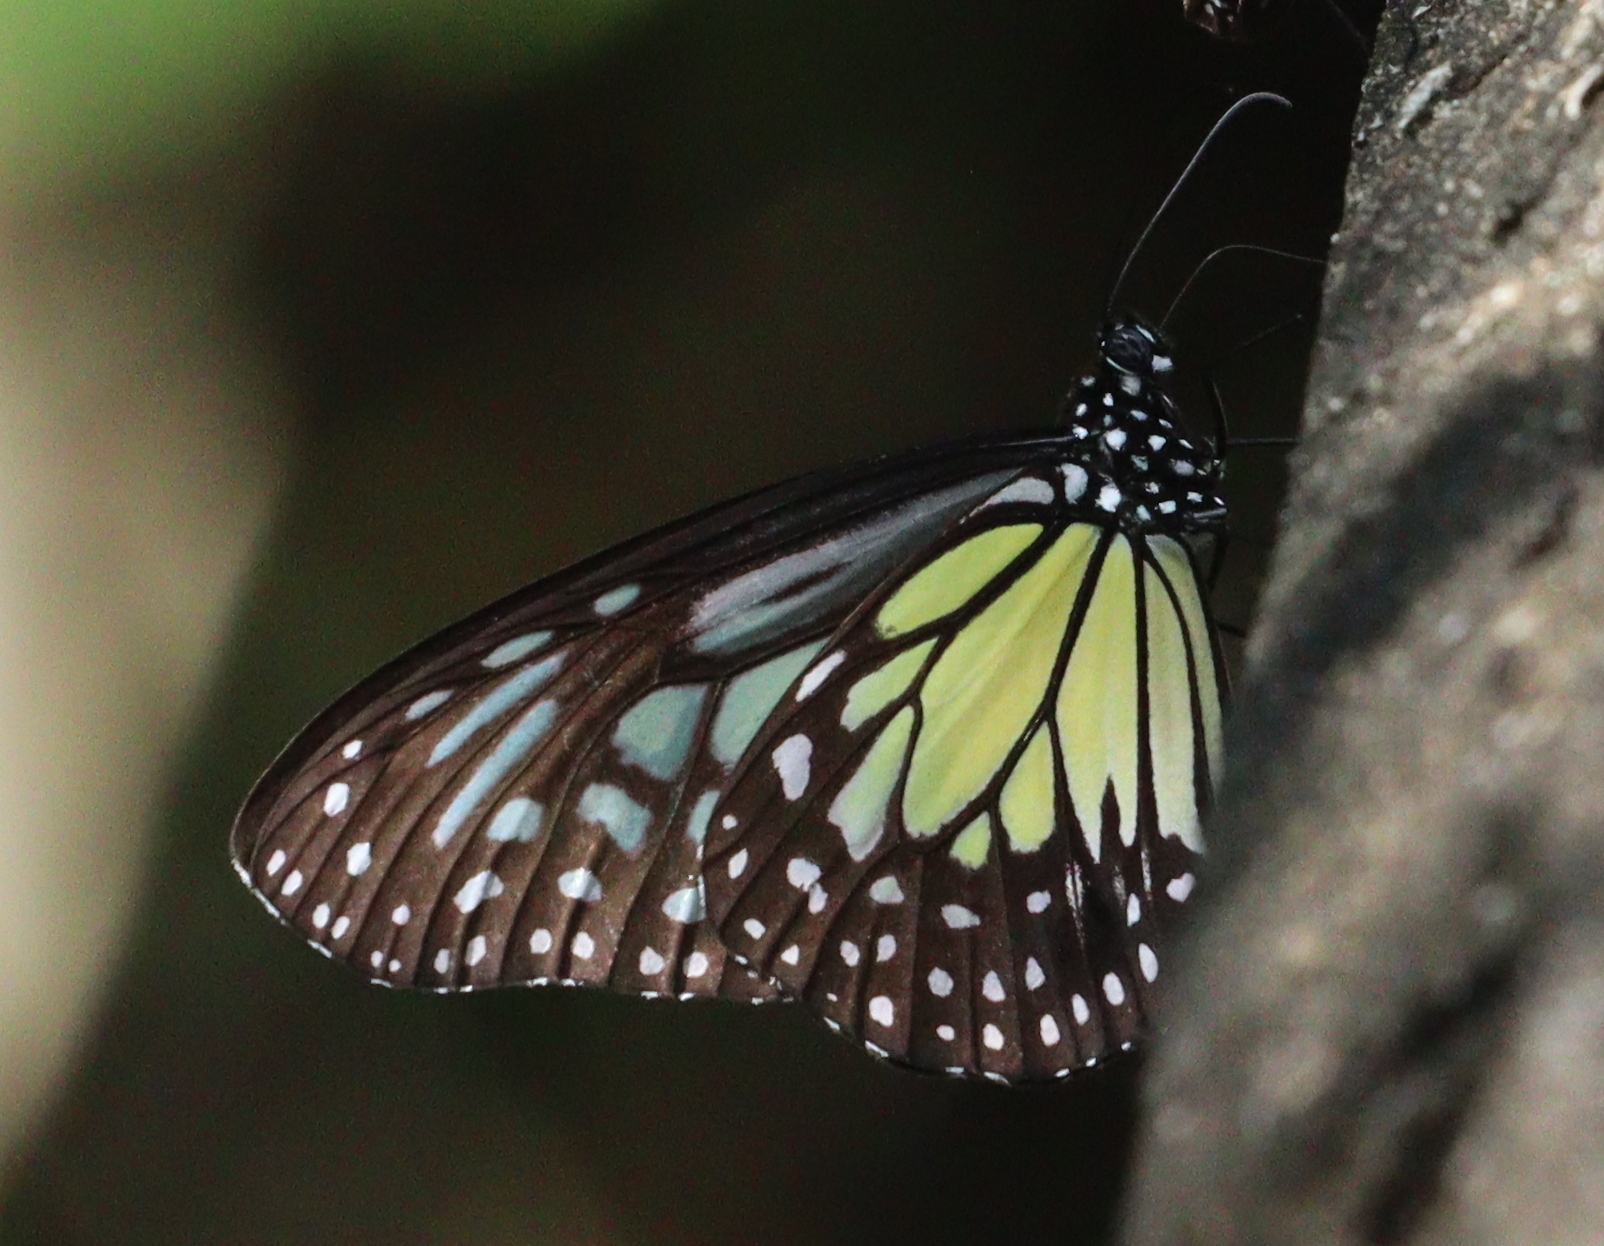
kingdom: Animalia
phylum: Arthropoda
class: Insecta
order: Lepidoptera
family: Nymphalidae
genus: Parantica
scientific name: Parantica aspasia
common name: Yellow glassy tiger
